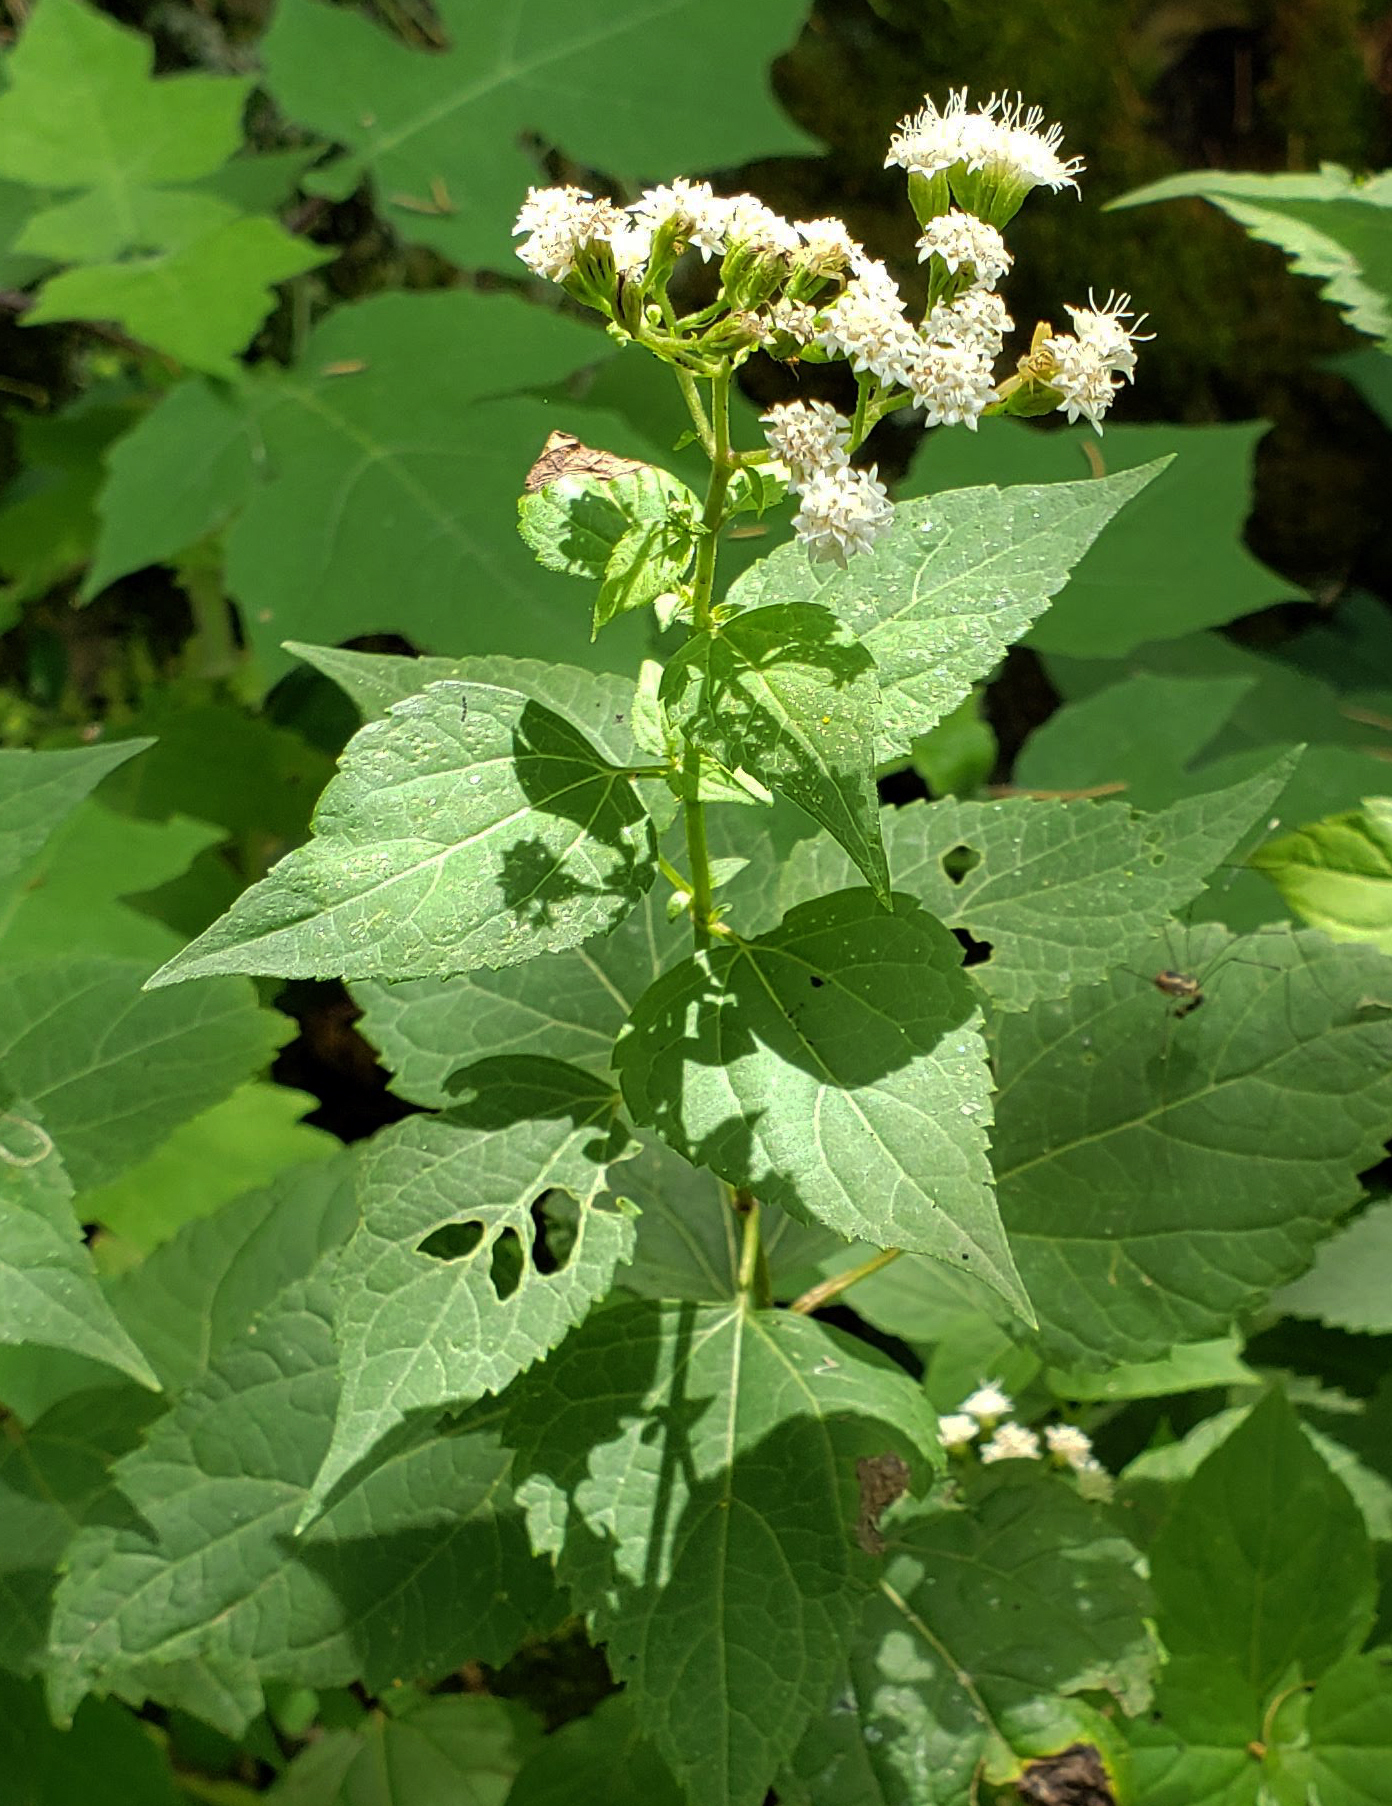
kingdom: Plantae
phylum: Tracheophyta
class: Magnoliopsida
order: Asterales
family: Asteraceae
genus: Ageratina
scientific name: Ageratina altissima
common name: White snakeroot
